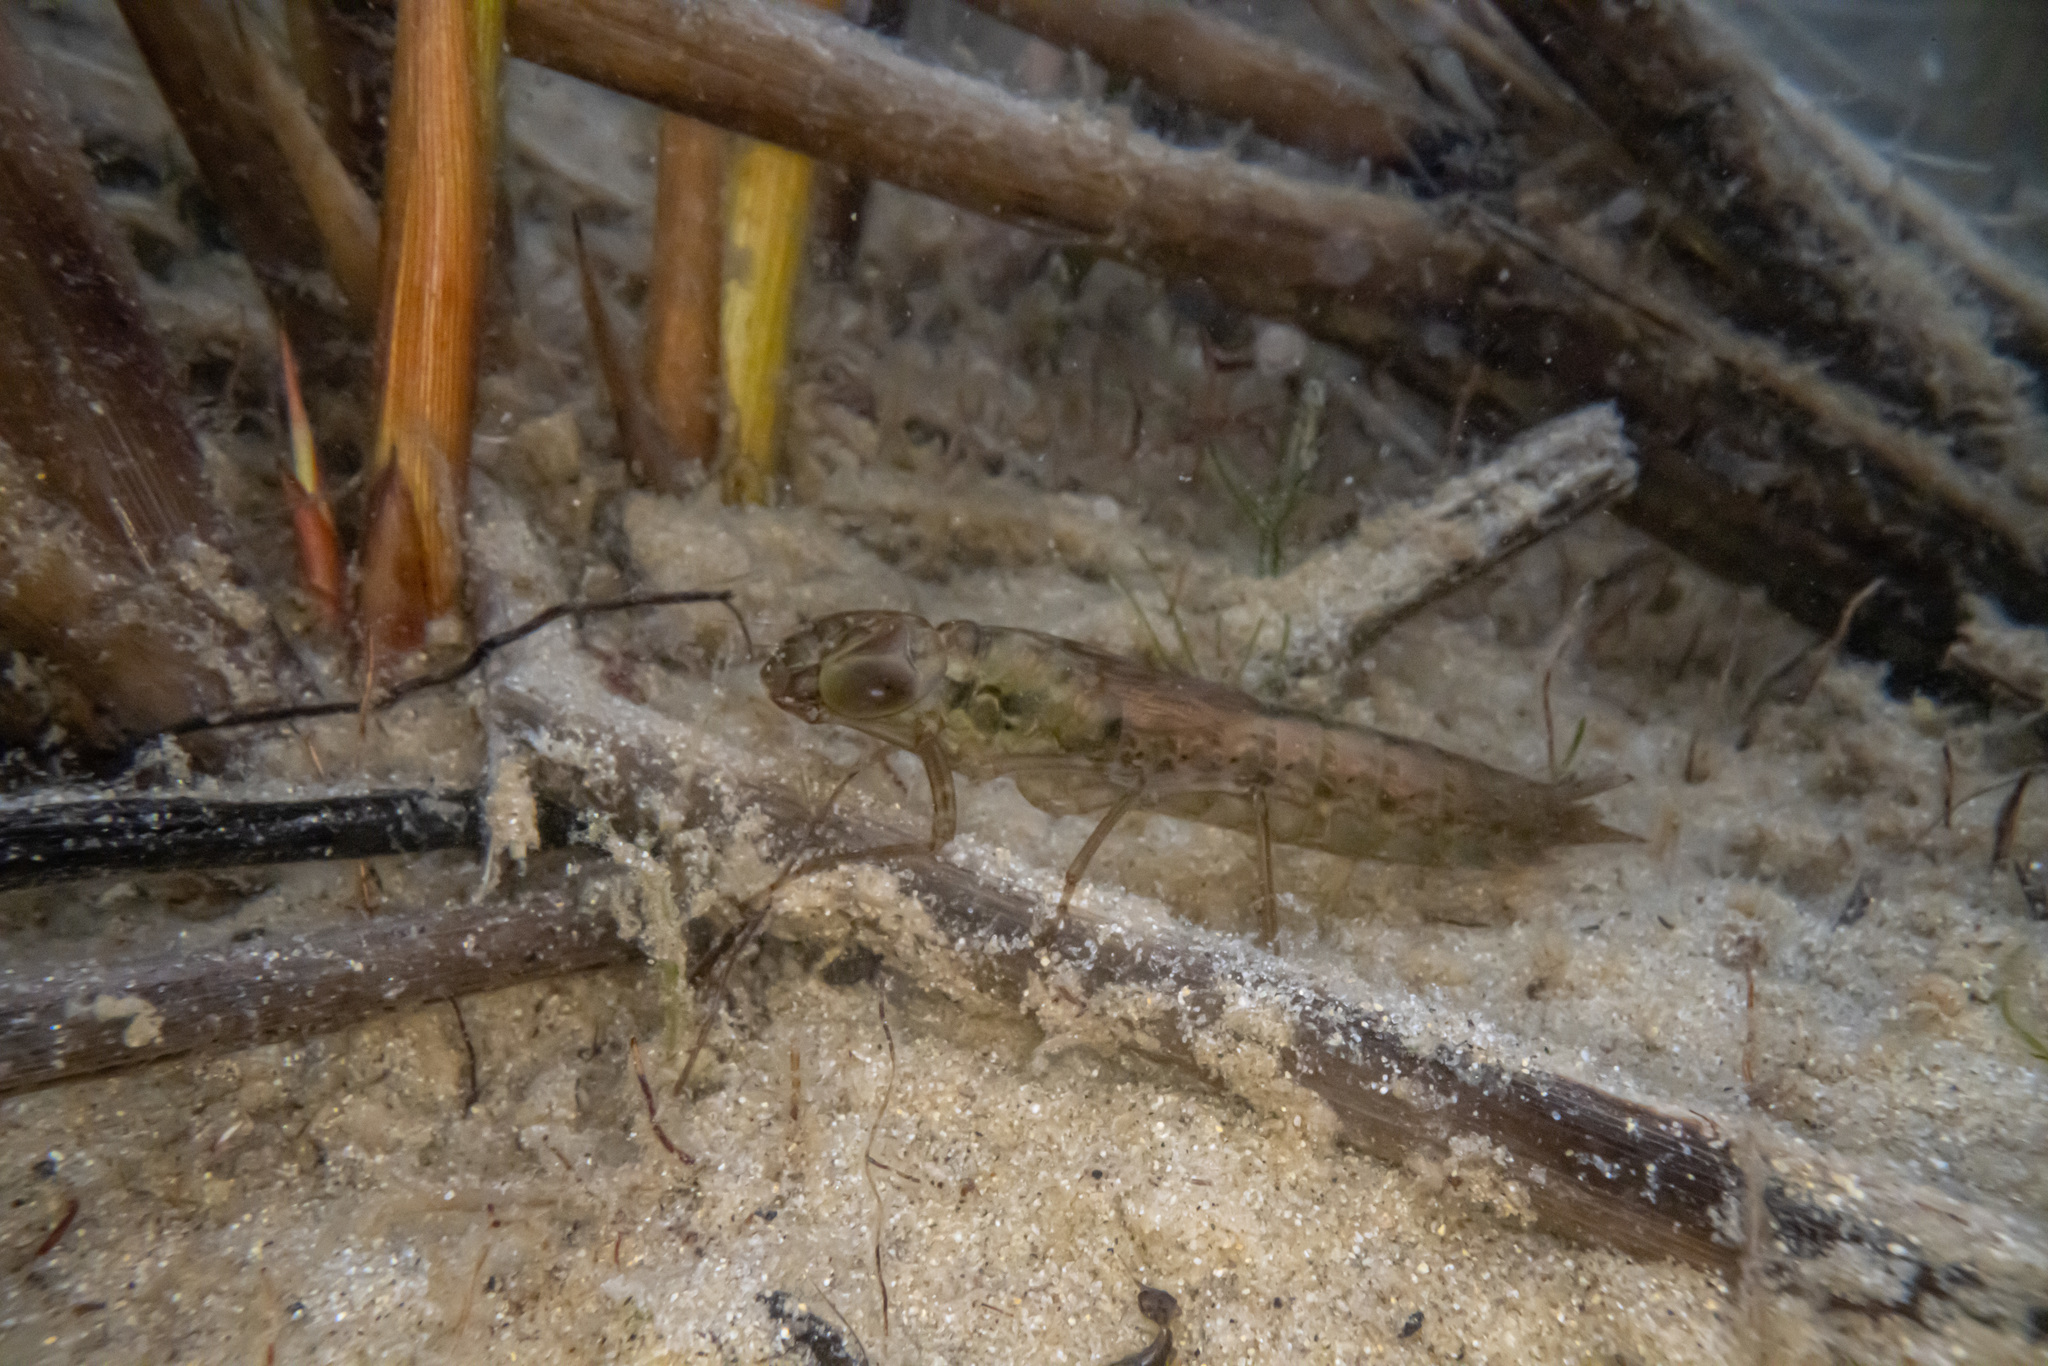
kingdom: Animalia
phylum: Arthropoda
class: Insecta
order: Odonata
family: Aeshnidae
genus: Aeshna
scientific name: Aeshna brevistyla
